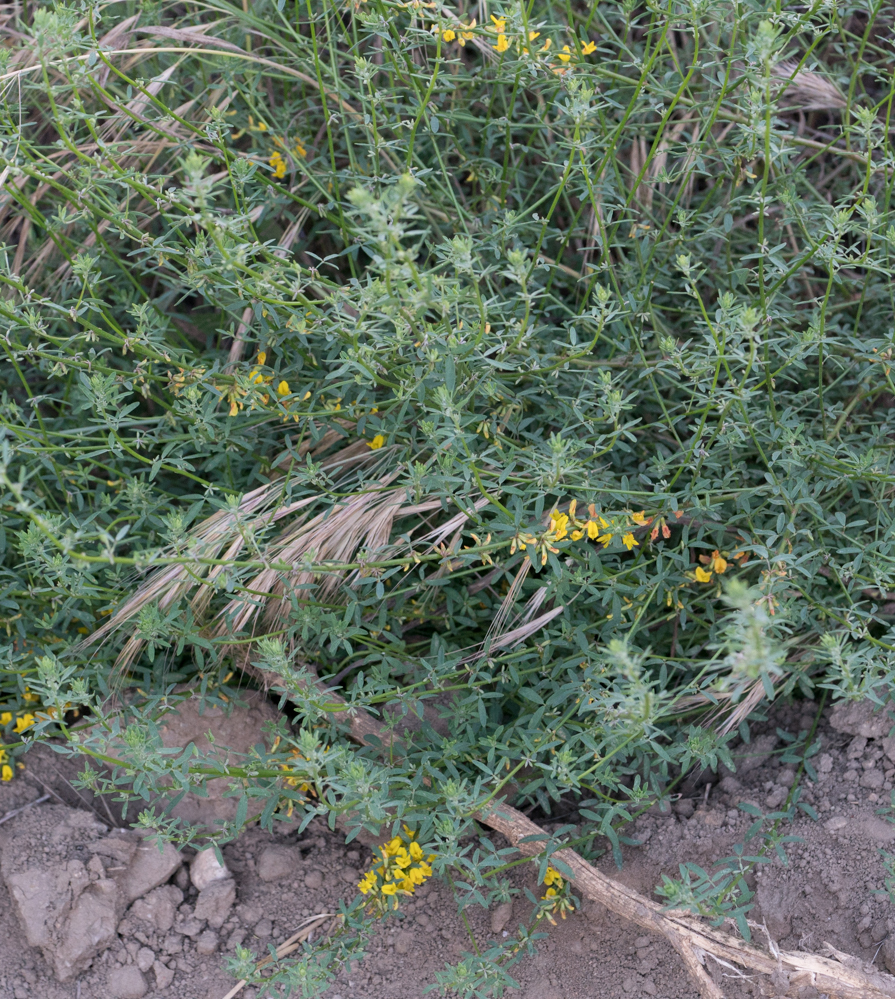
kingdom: Plantae
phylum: Tracheophyta
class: Magnoliopsida
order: Fabales
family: Fabaceae
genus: Acmispon
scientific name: Acmispon glaber
